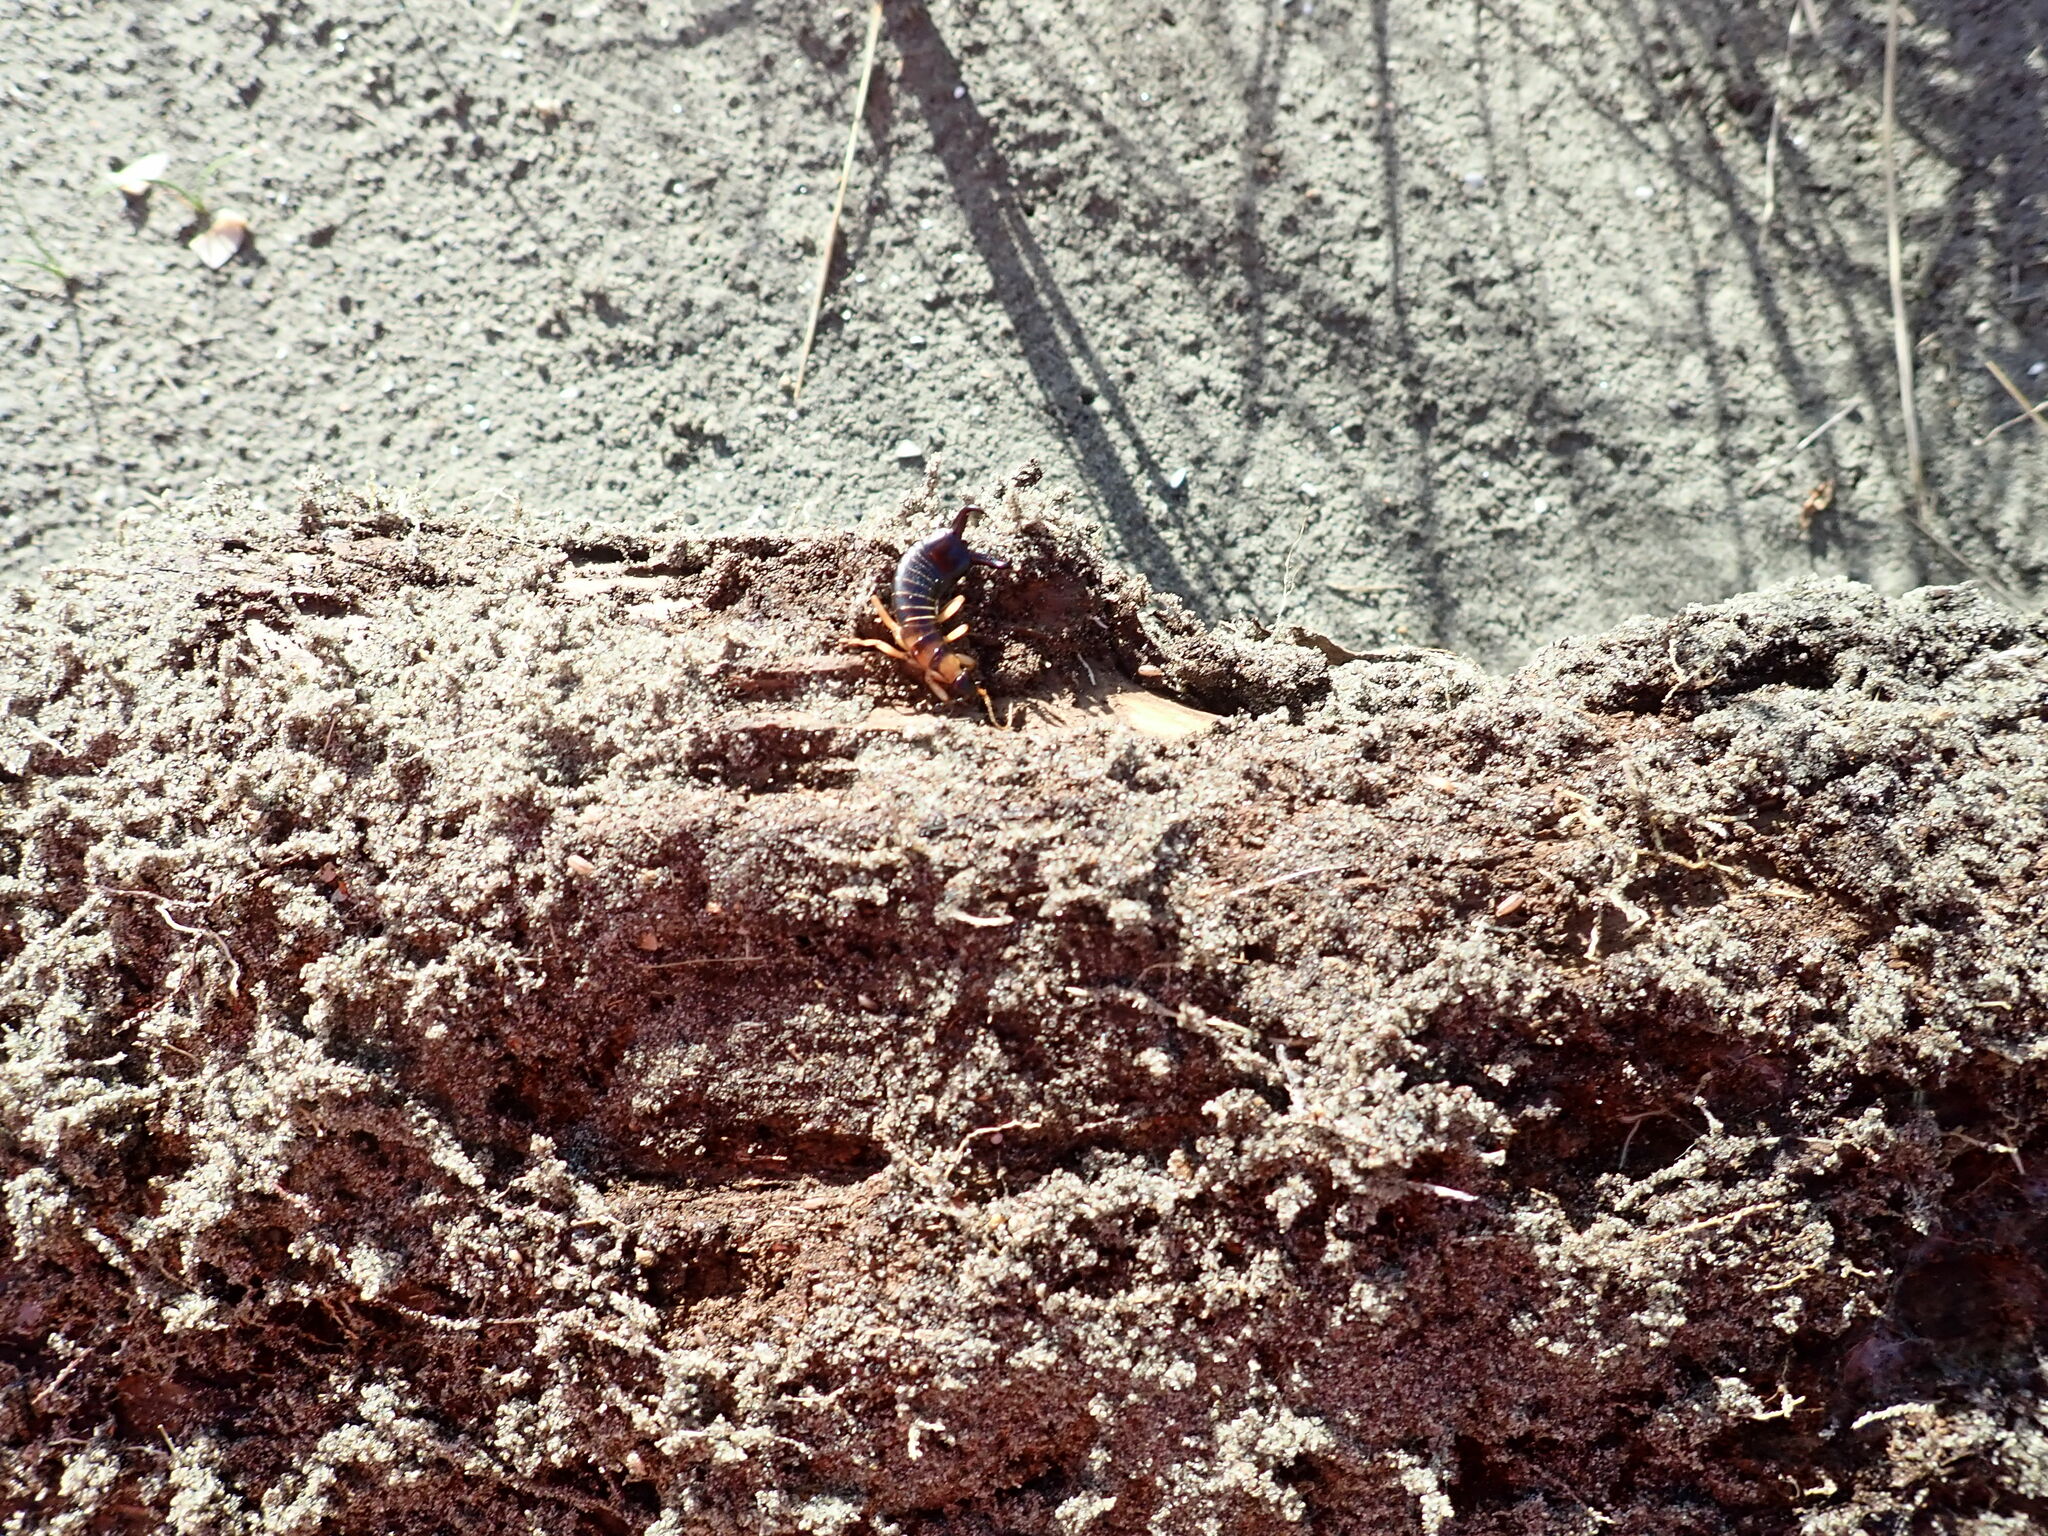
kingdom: Animalia
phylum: Arthropoda
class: Insecta
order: Dermaptera
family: Anisolabididae
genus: Anisolabis
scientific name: Anisolabis littorea
